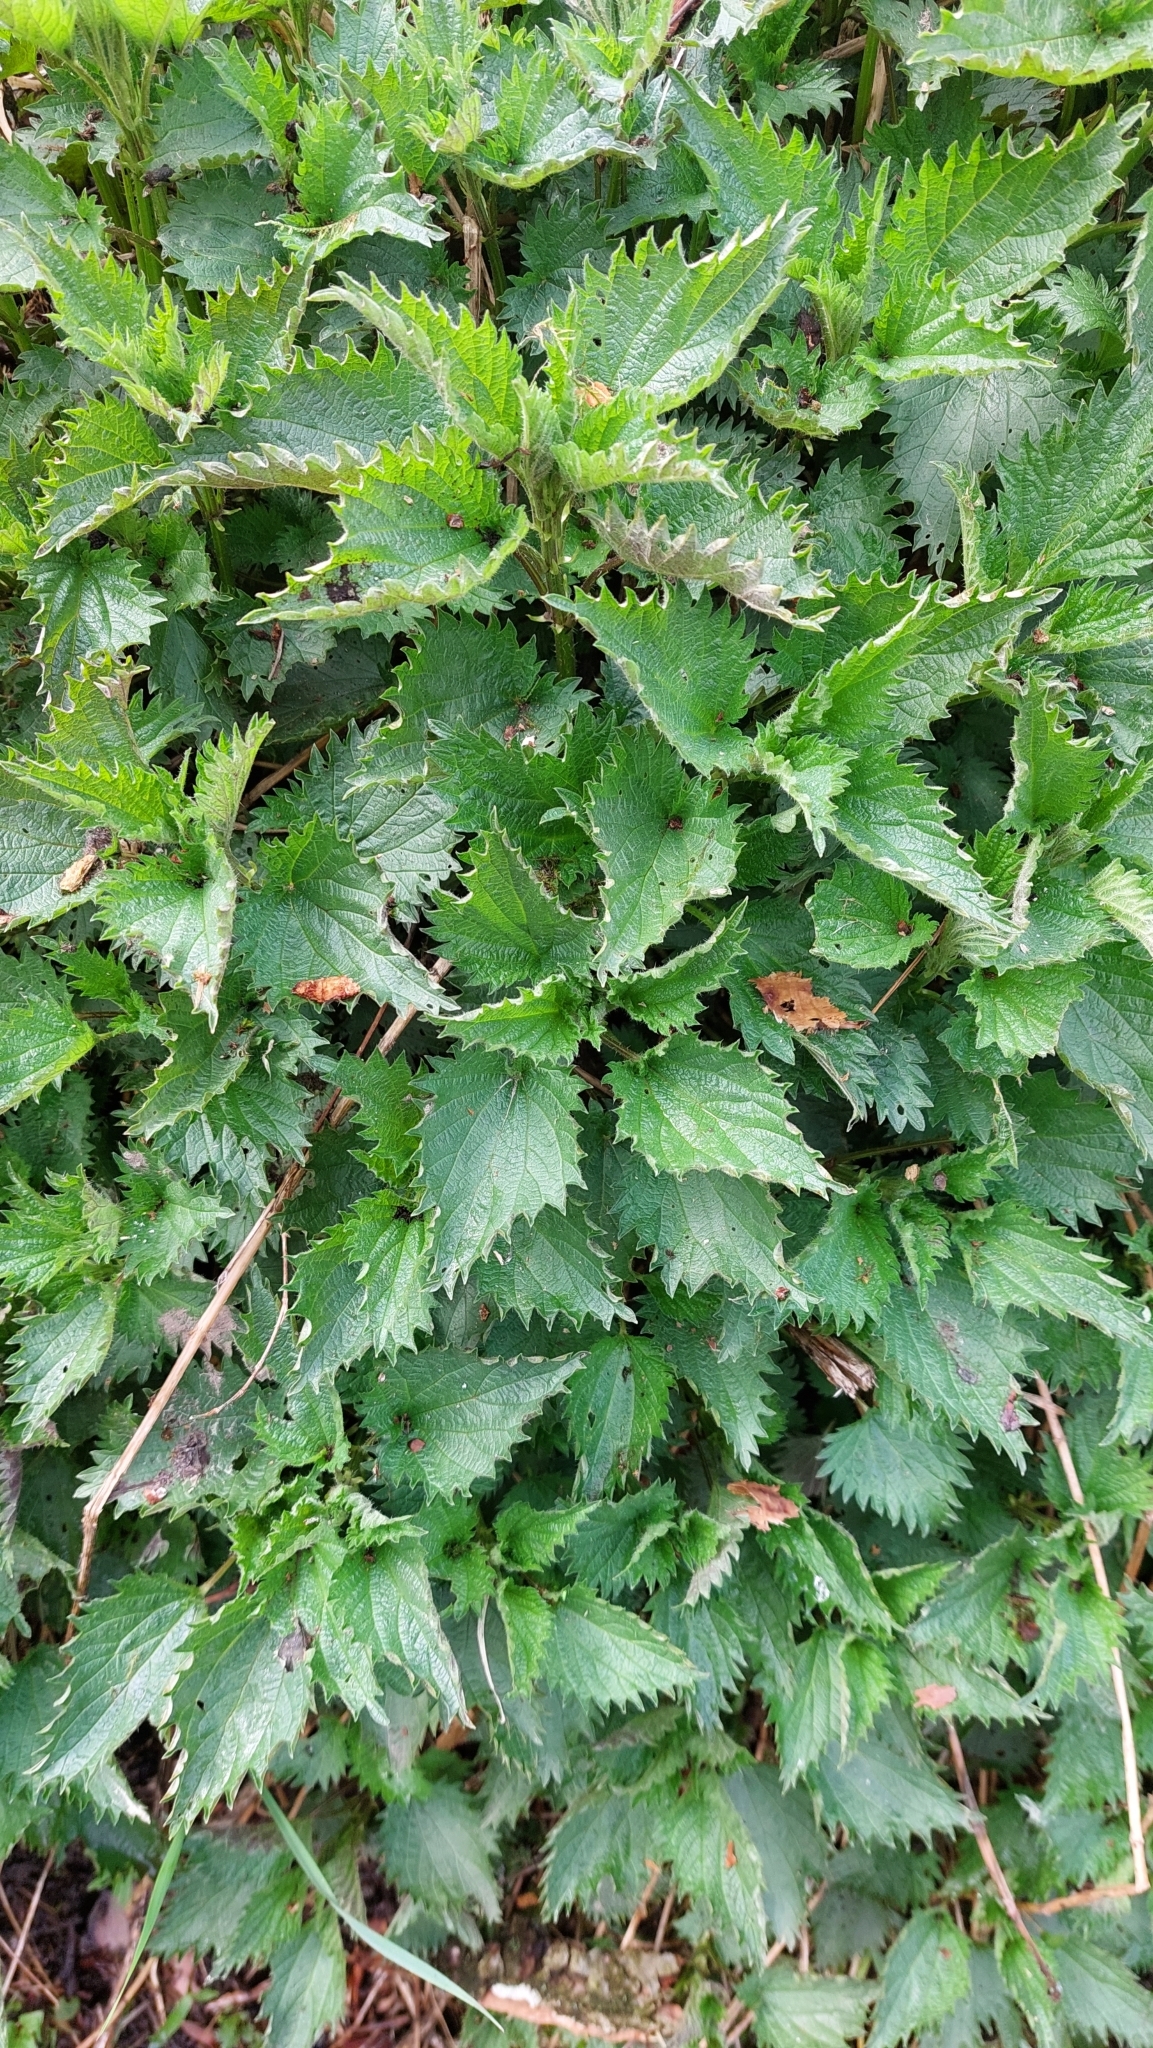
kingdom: Plantae
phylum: Tracheophyta
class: Magnoliopsida
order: Rosales
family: Urticaceae
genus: Urtica
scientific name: Urtica dioica
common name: Common nettle
